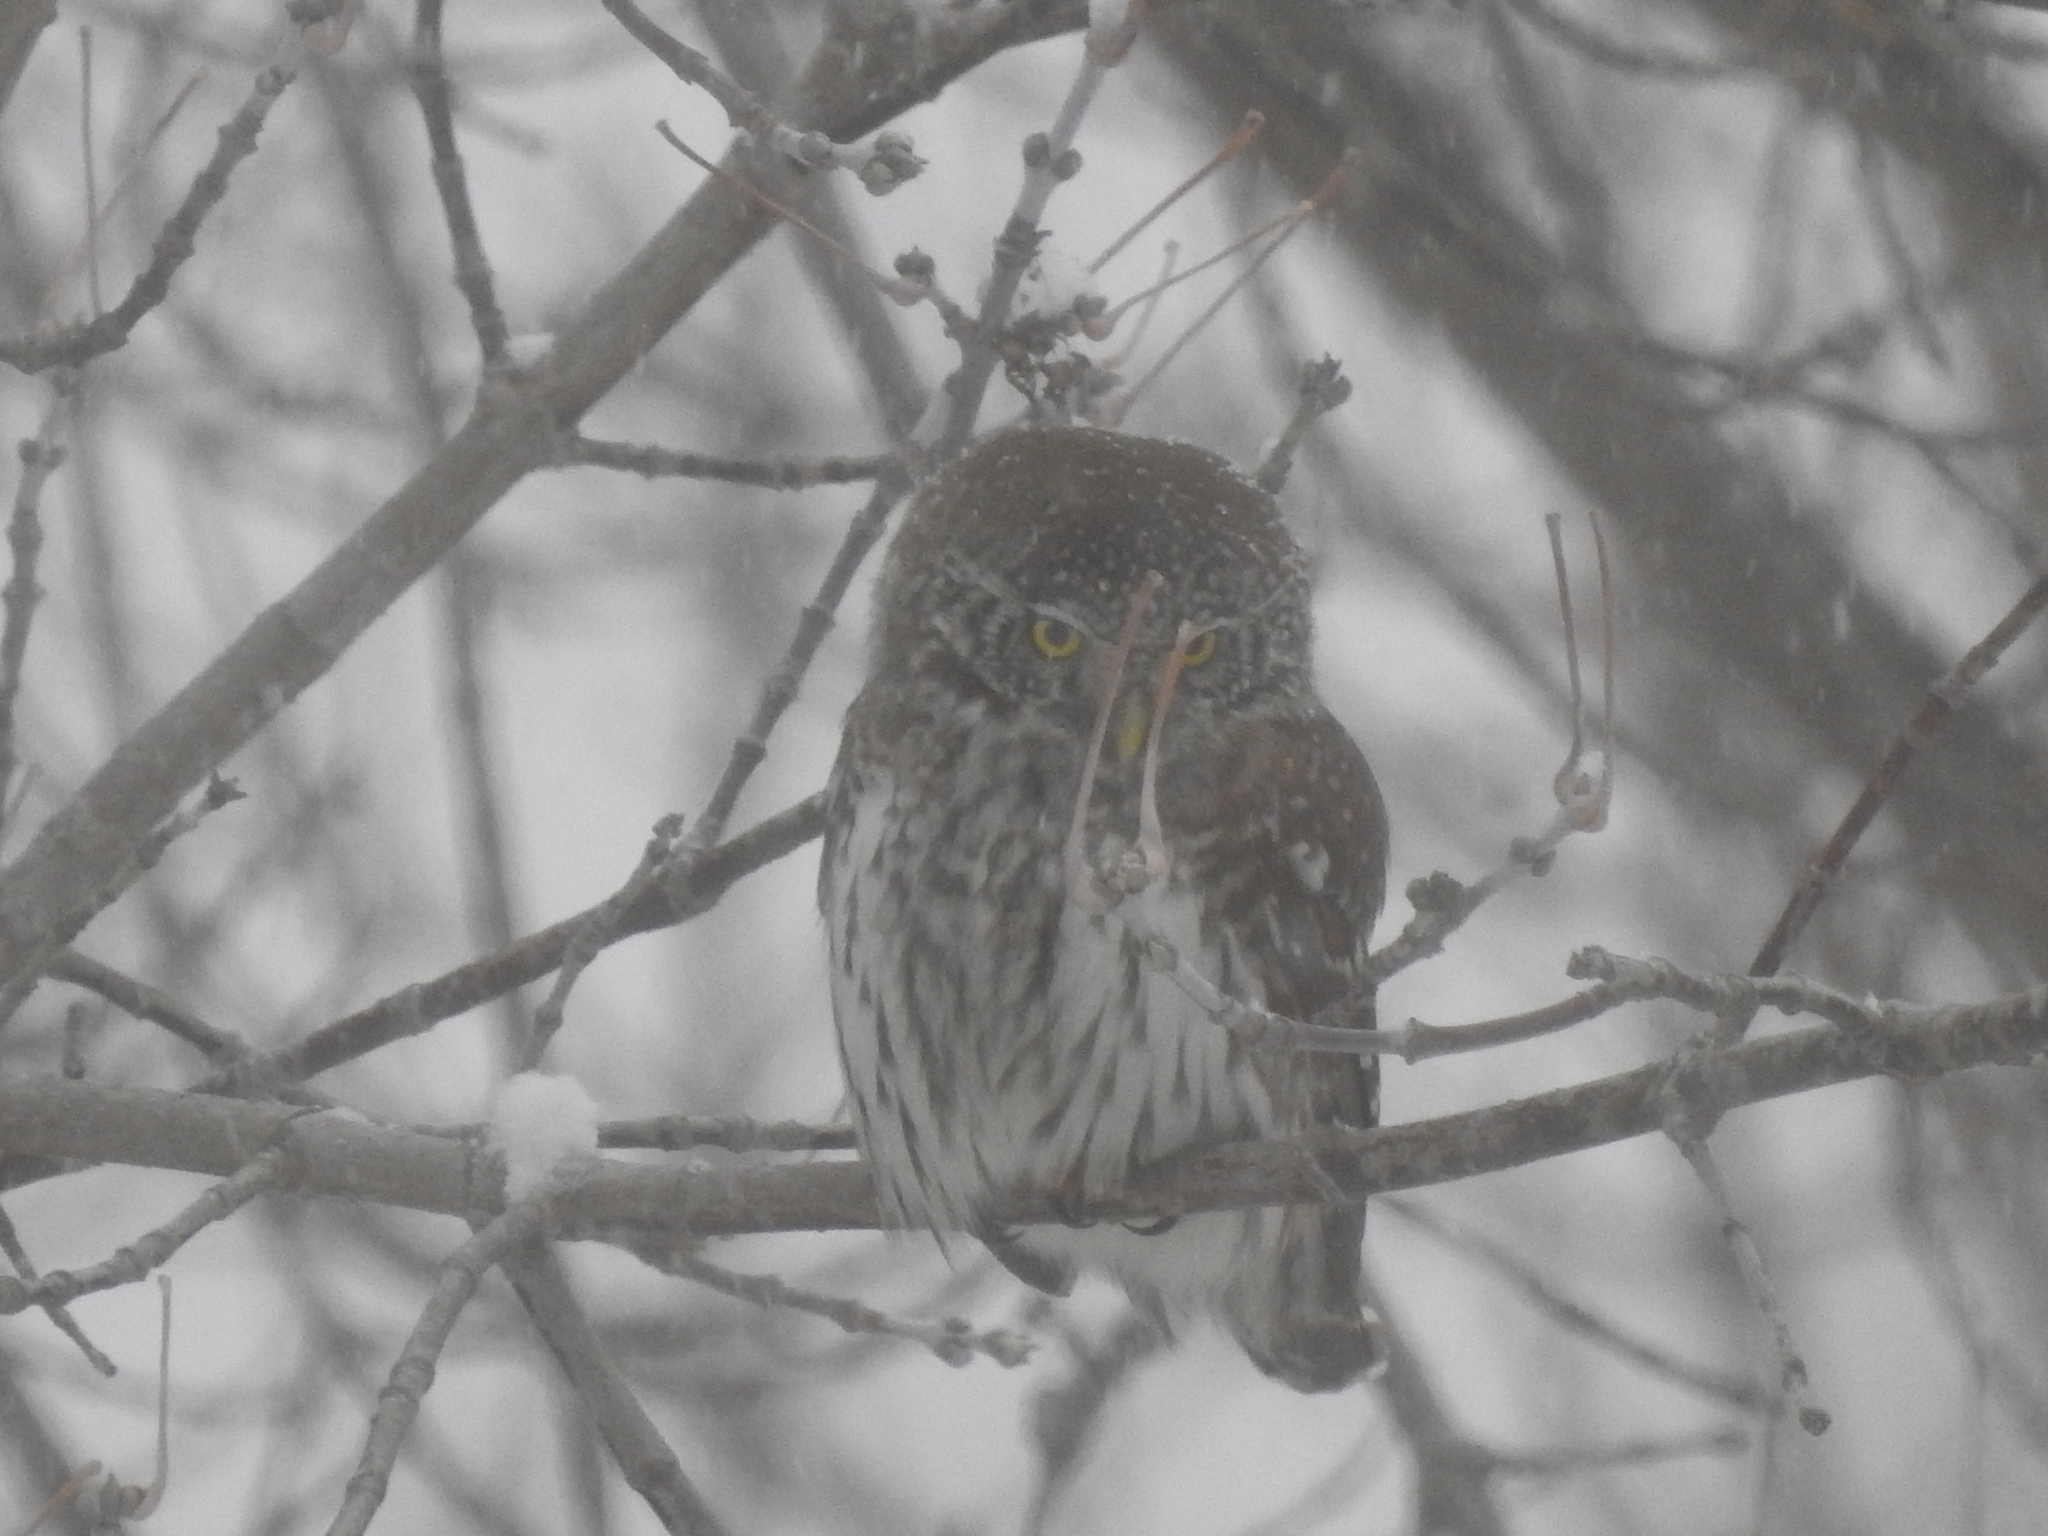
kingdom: Animalia
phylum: Chordata
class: Aves
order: Strigiformes
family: Strigidae
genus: Glaucidium
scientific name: Glaucidium passerinum
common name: Eurasian pygmy owl
